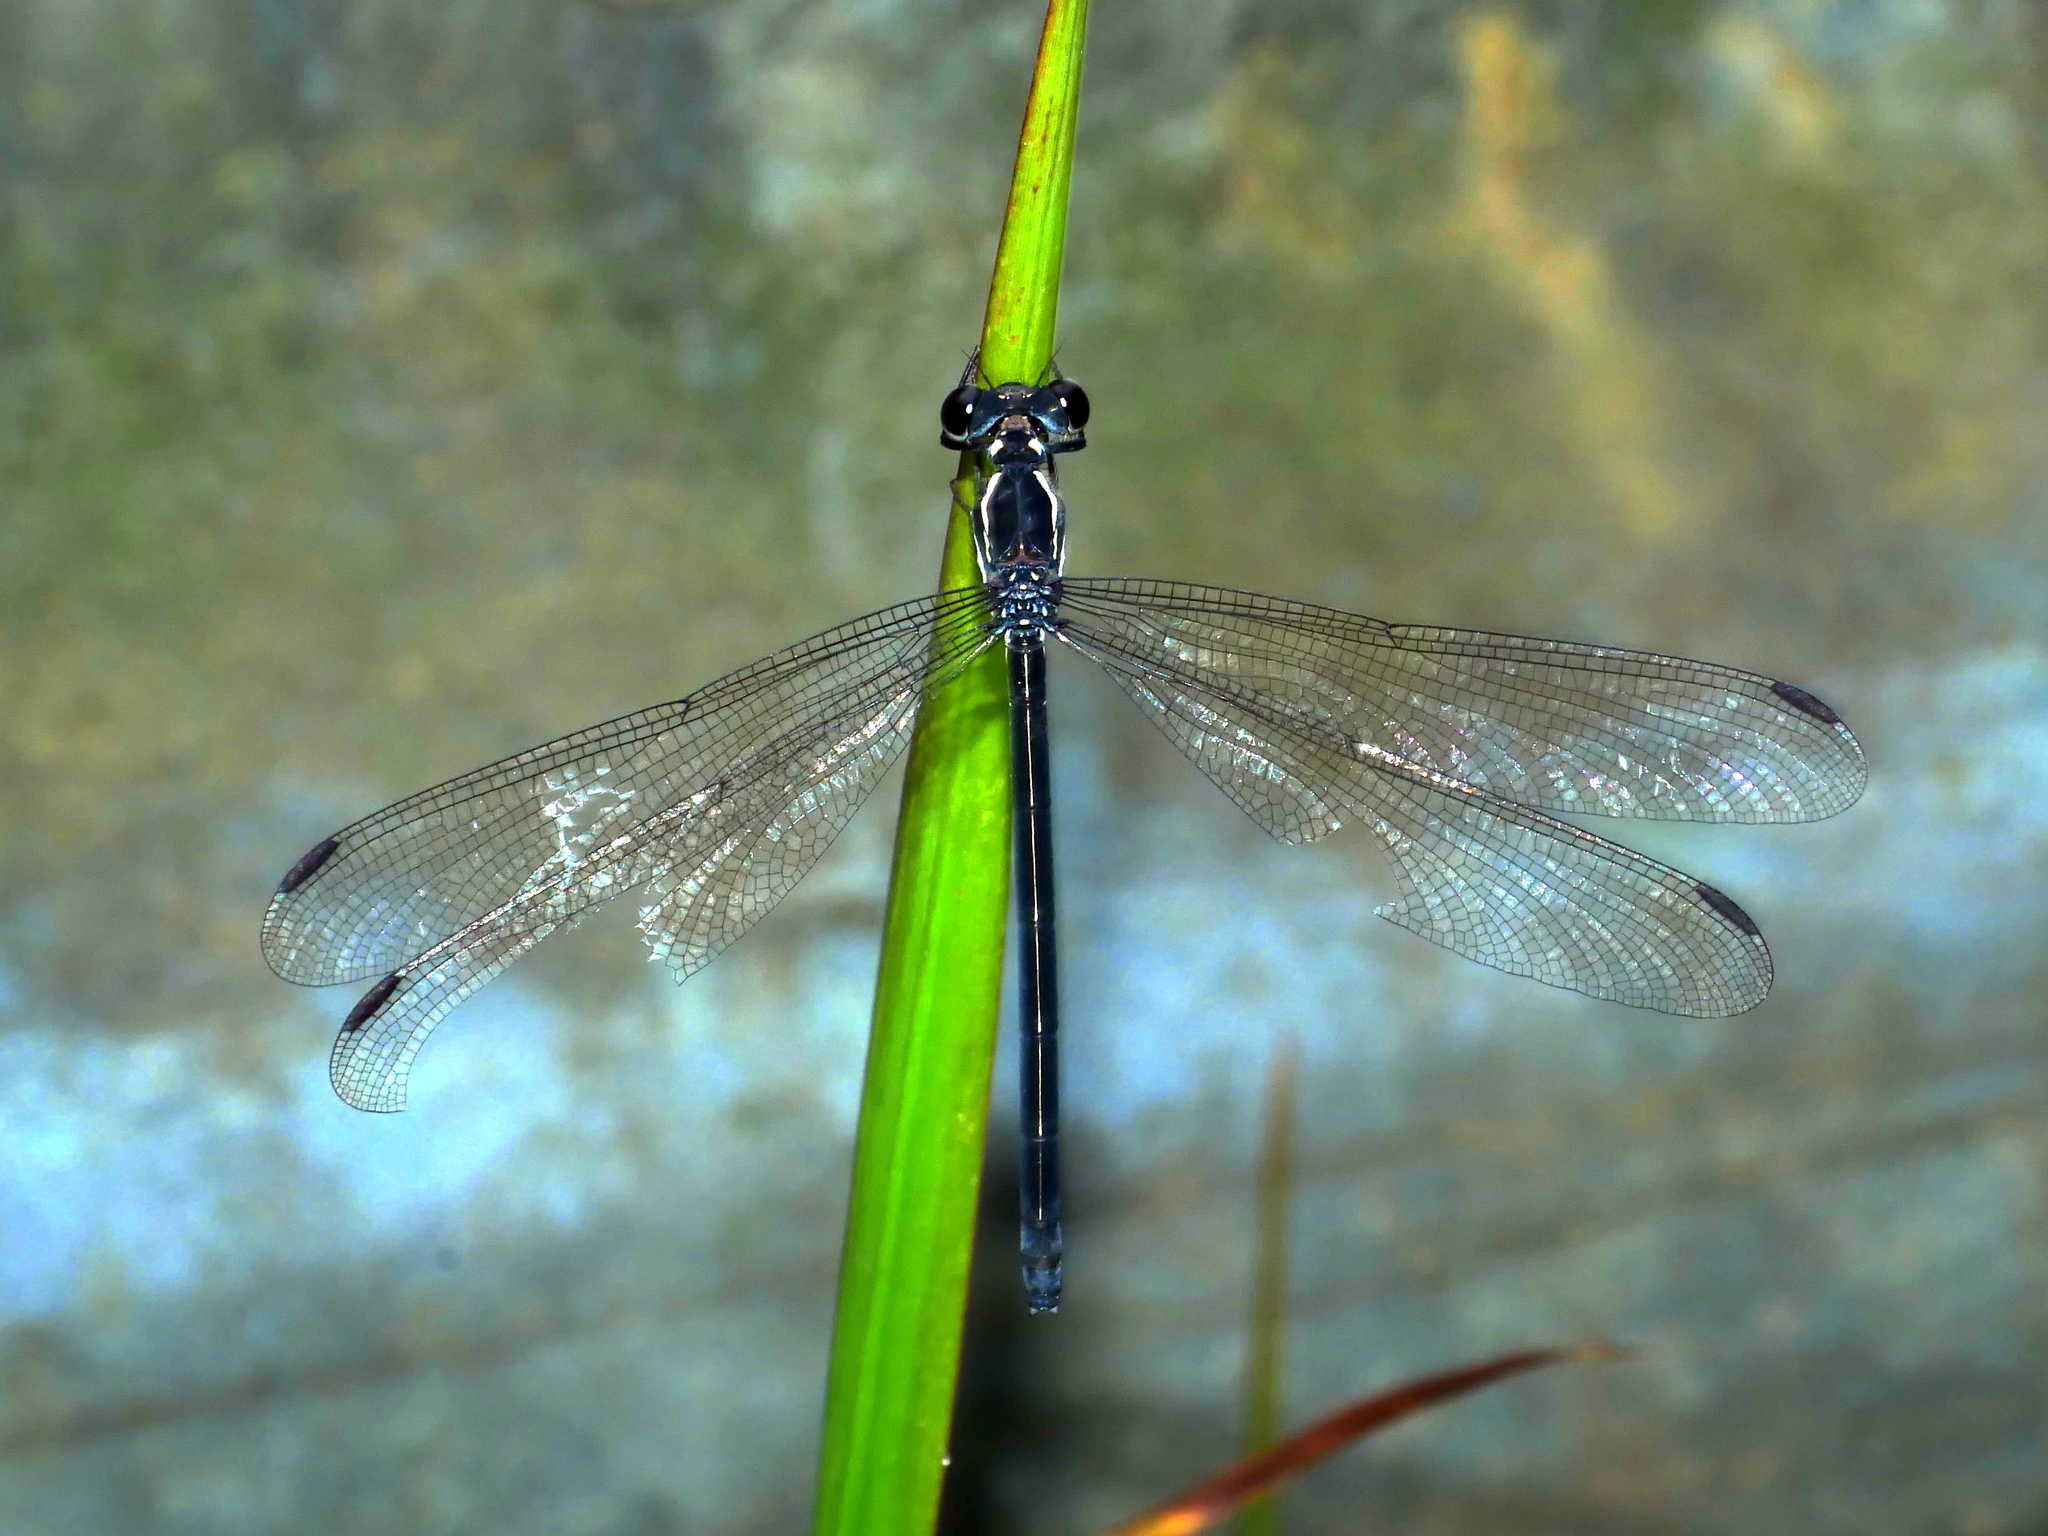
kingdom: Animalia
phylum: Arthropoda
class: Insecta
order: Odonata
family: Euphaeidae
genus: Bayadera
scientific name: Bayadera brevicauda
